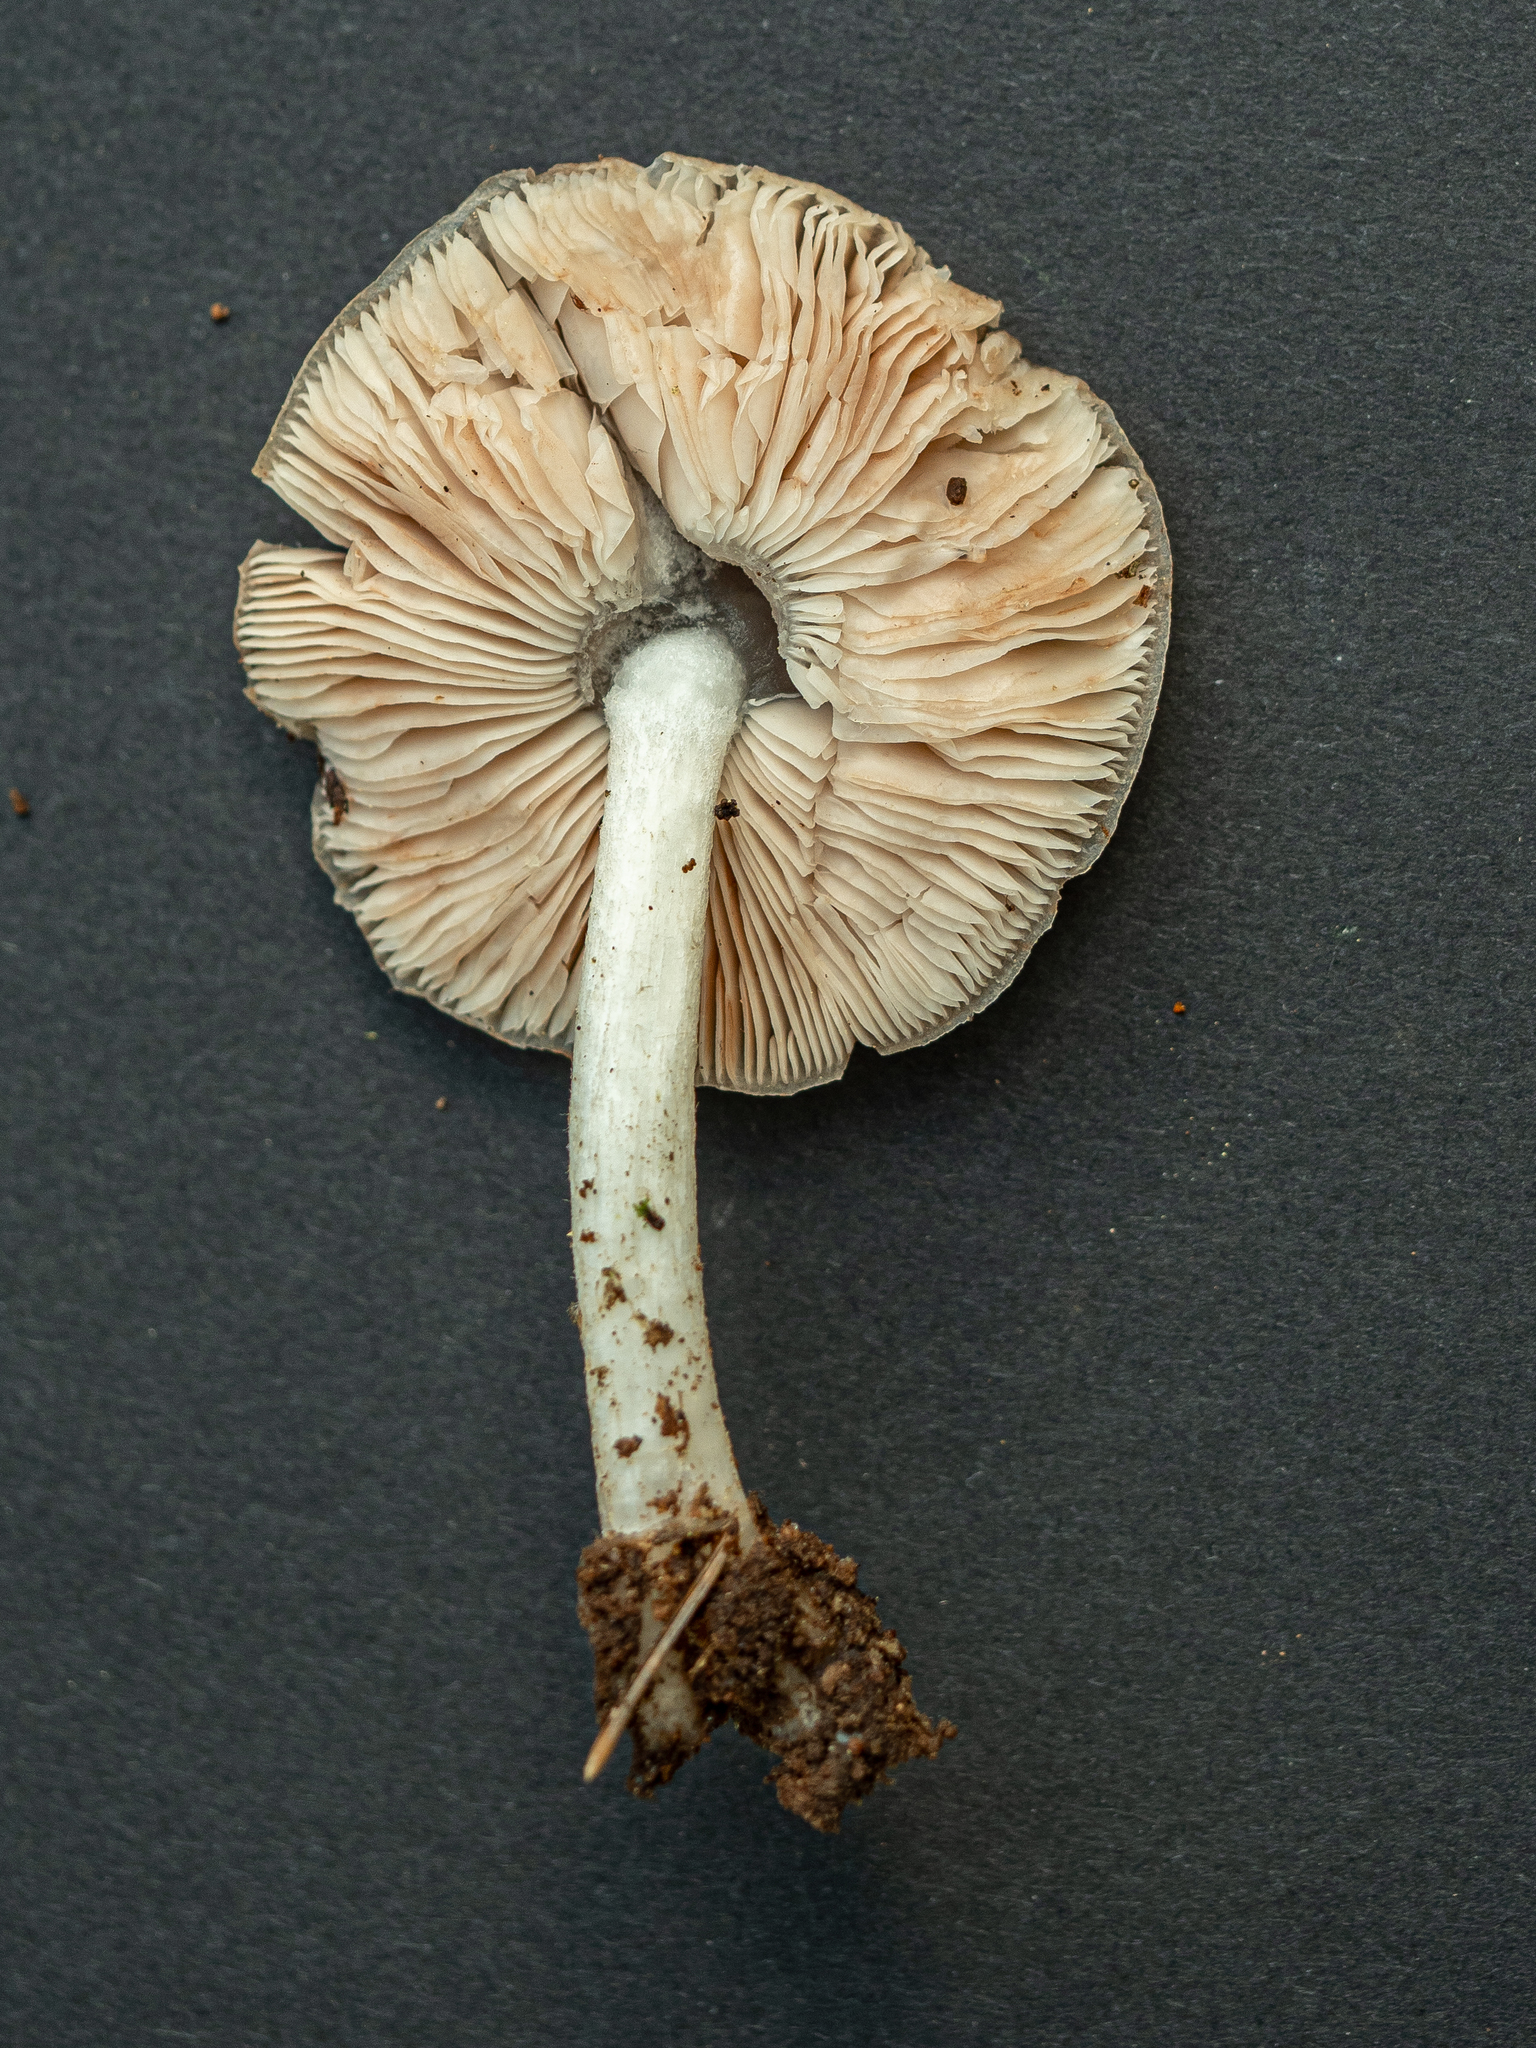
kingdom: Fungi
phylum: Basidiomycota
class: Agaricomycetes
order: Agaricales
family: Pluteaceae
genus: Pluteus
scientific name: Pluteus cervinus
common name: Deer shield
